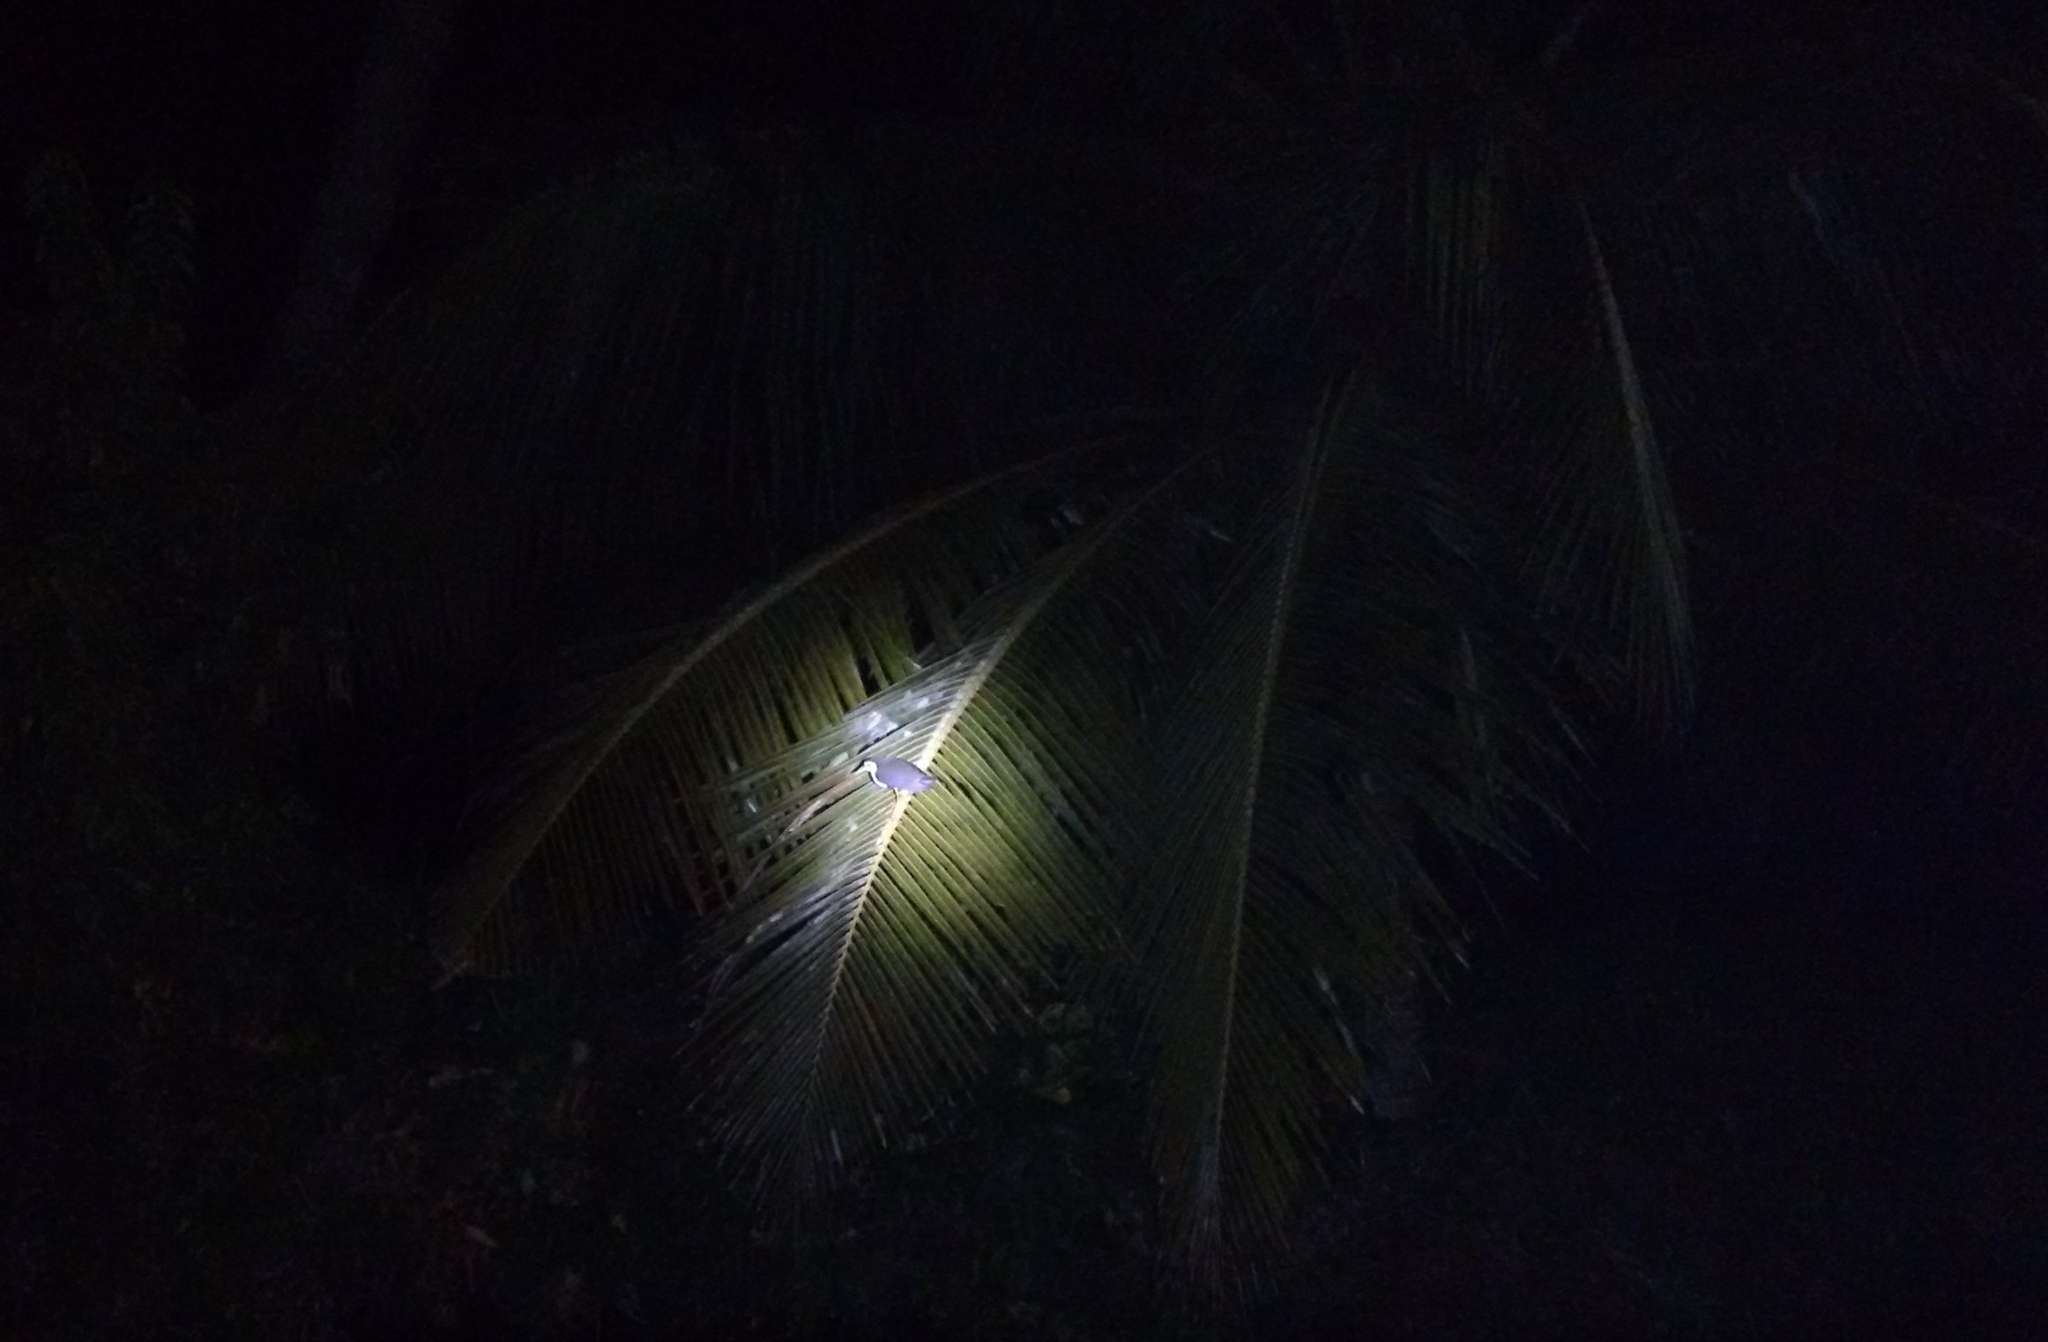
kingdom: Animalia
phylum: Chordata
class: Aves
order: Gruiformes
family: Rallidae
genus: Amaurornis
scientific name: Amaurornis phoenicurus
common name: White-breasted waterhen
